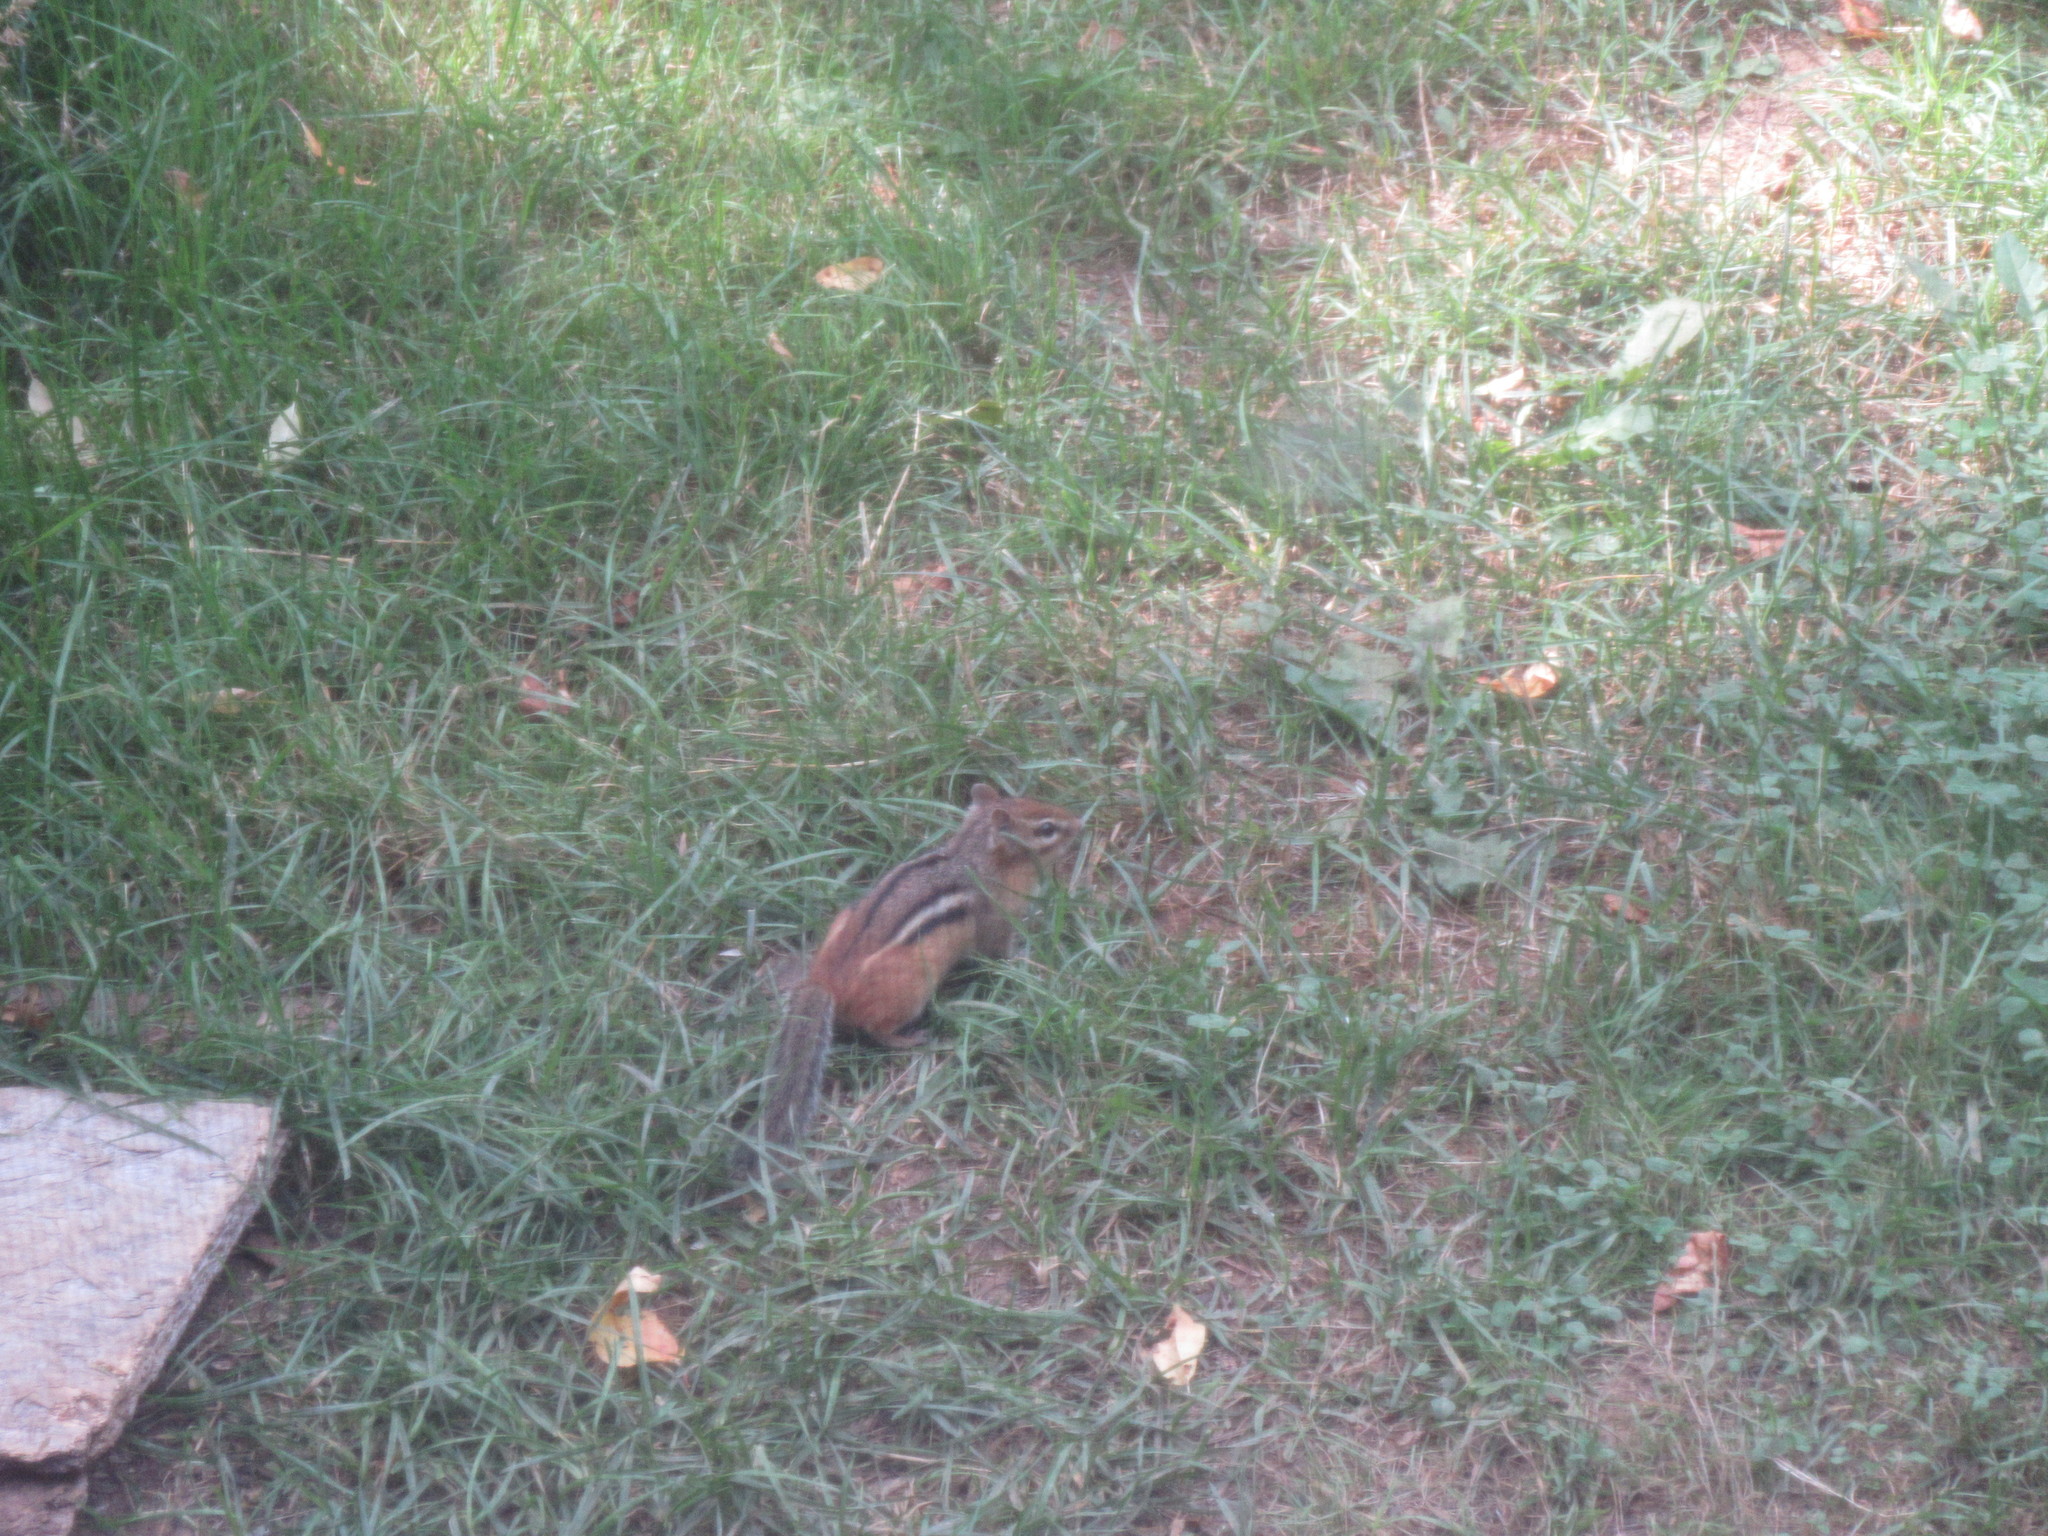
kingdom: Animalia
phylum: Chordata
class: Mammalia
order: Rodentia
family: Sciuridae
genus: Tamias
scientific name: Tamias striatus
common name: Eastern chipmunk
